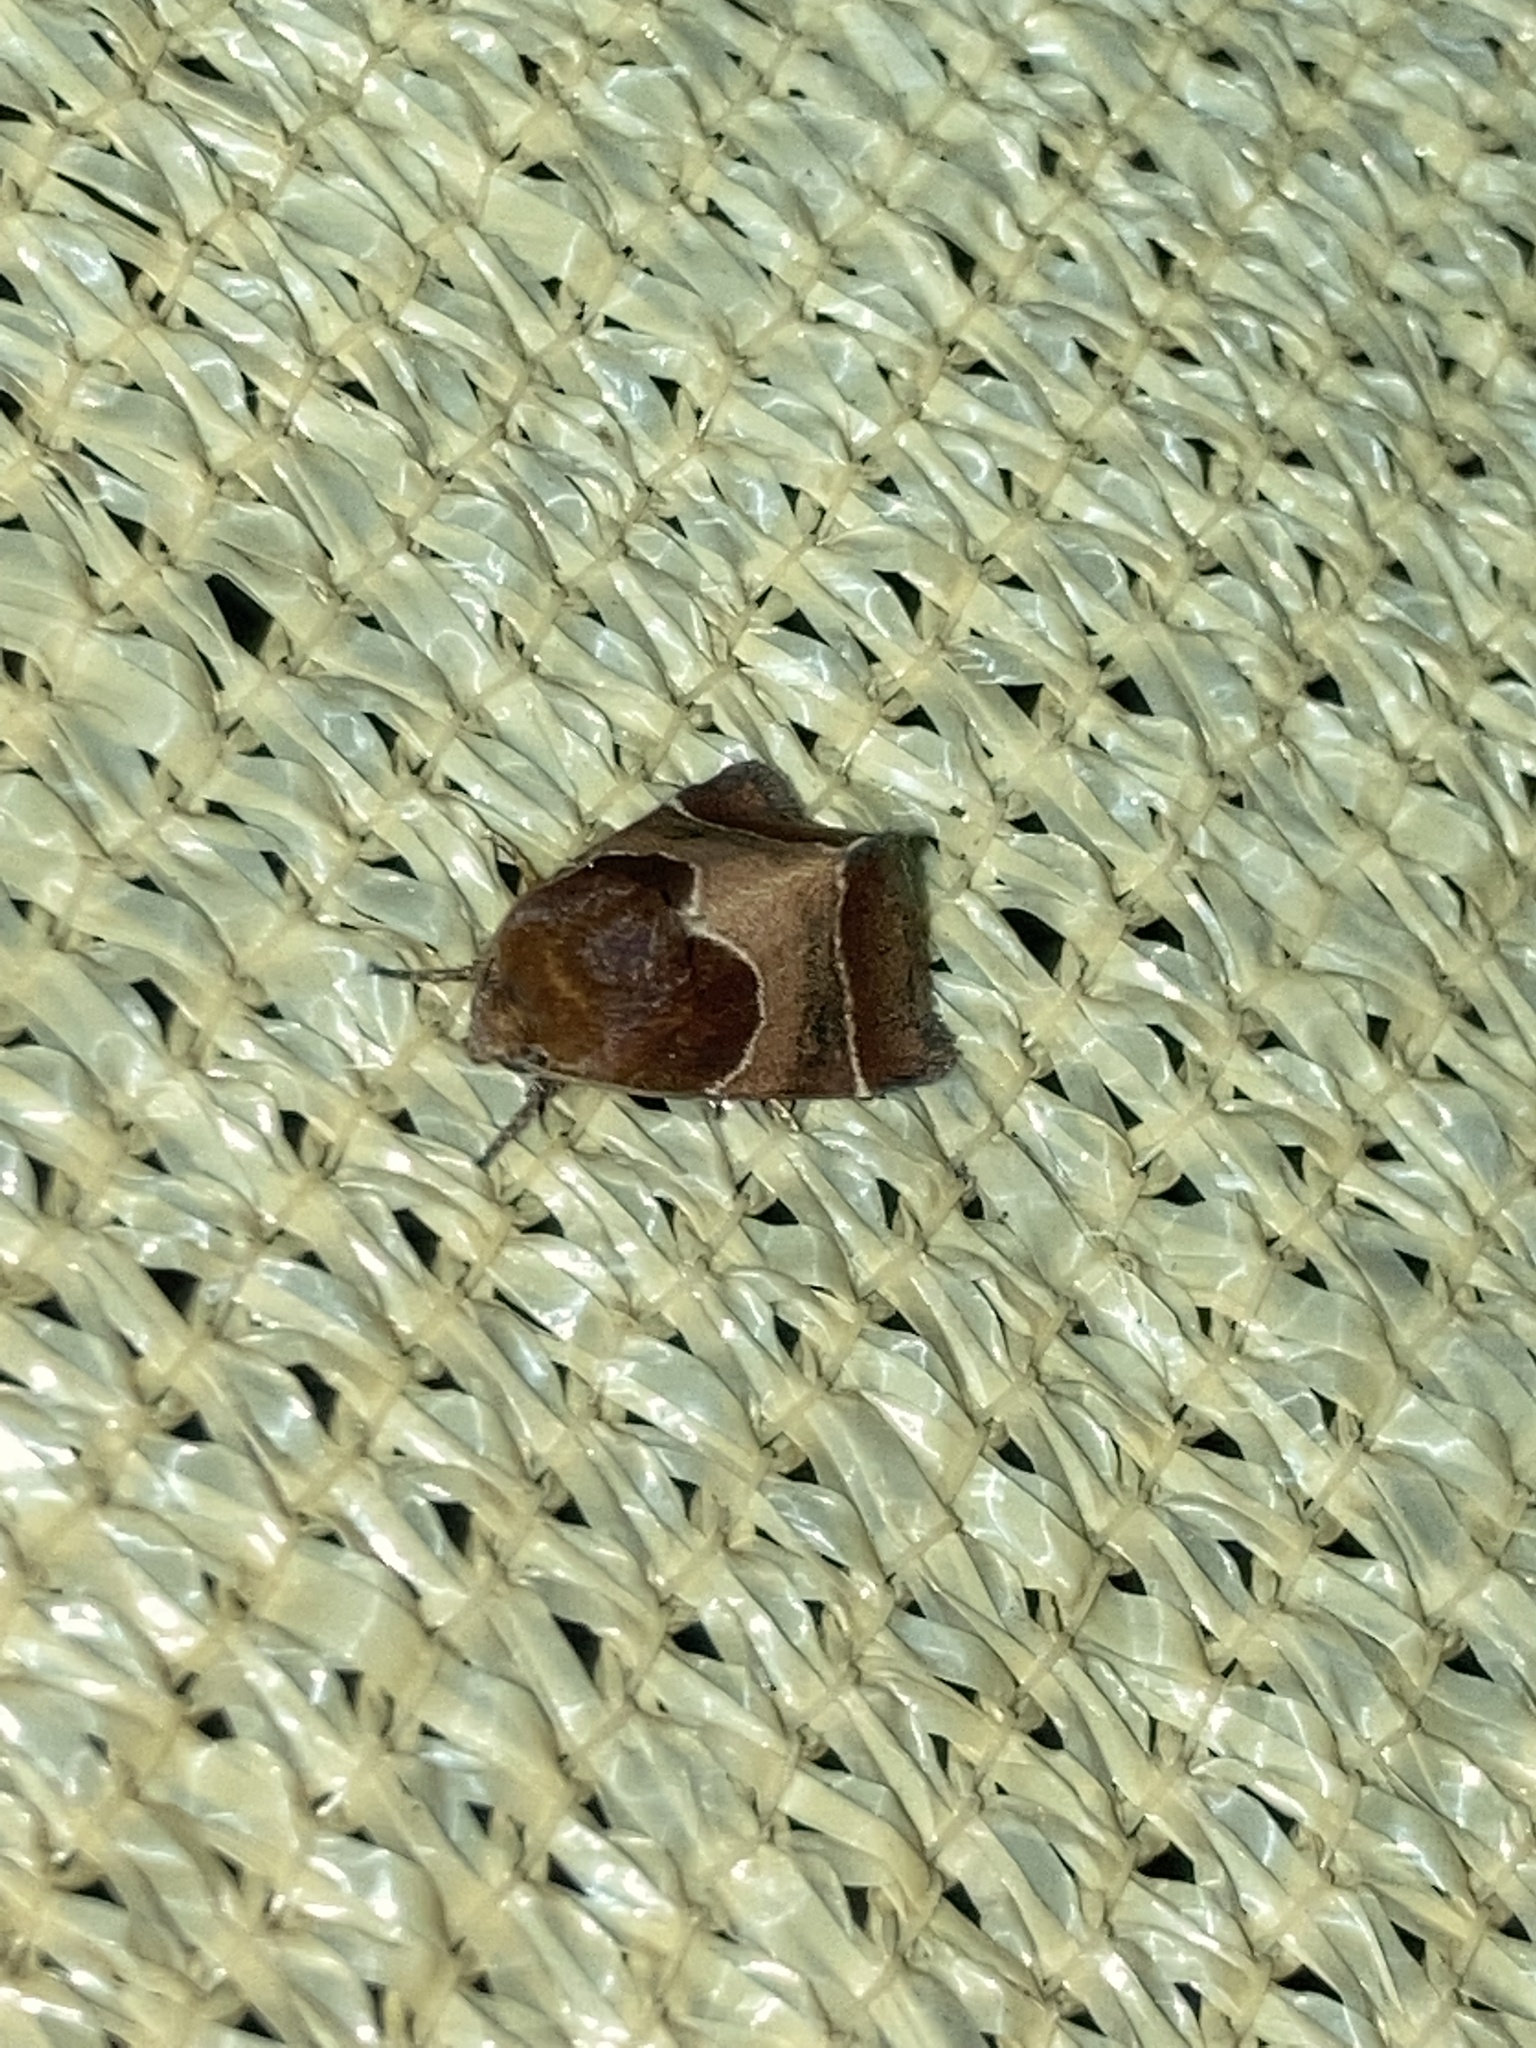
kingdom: Animalia
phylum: Arthropoda
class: Insecta
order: Lepidoptera
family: Noctuidae
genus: Schinia
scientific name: Schinia arcigera
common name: Arcigera flower moth
